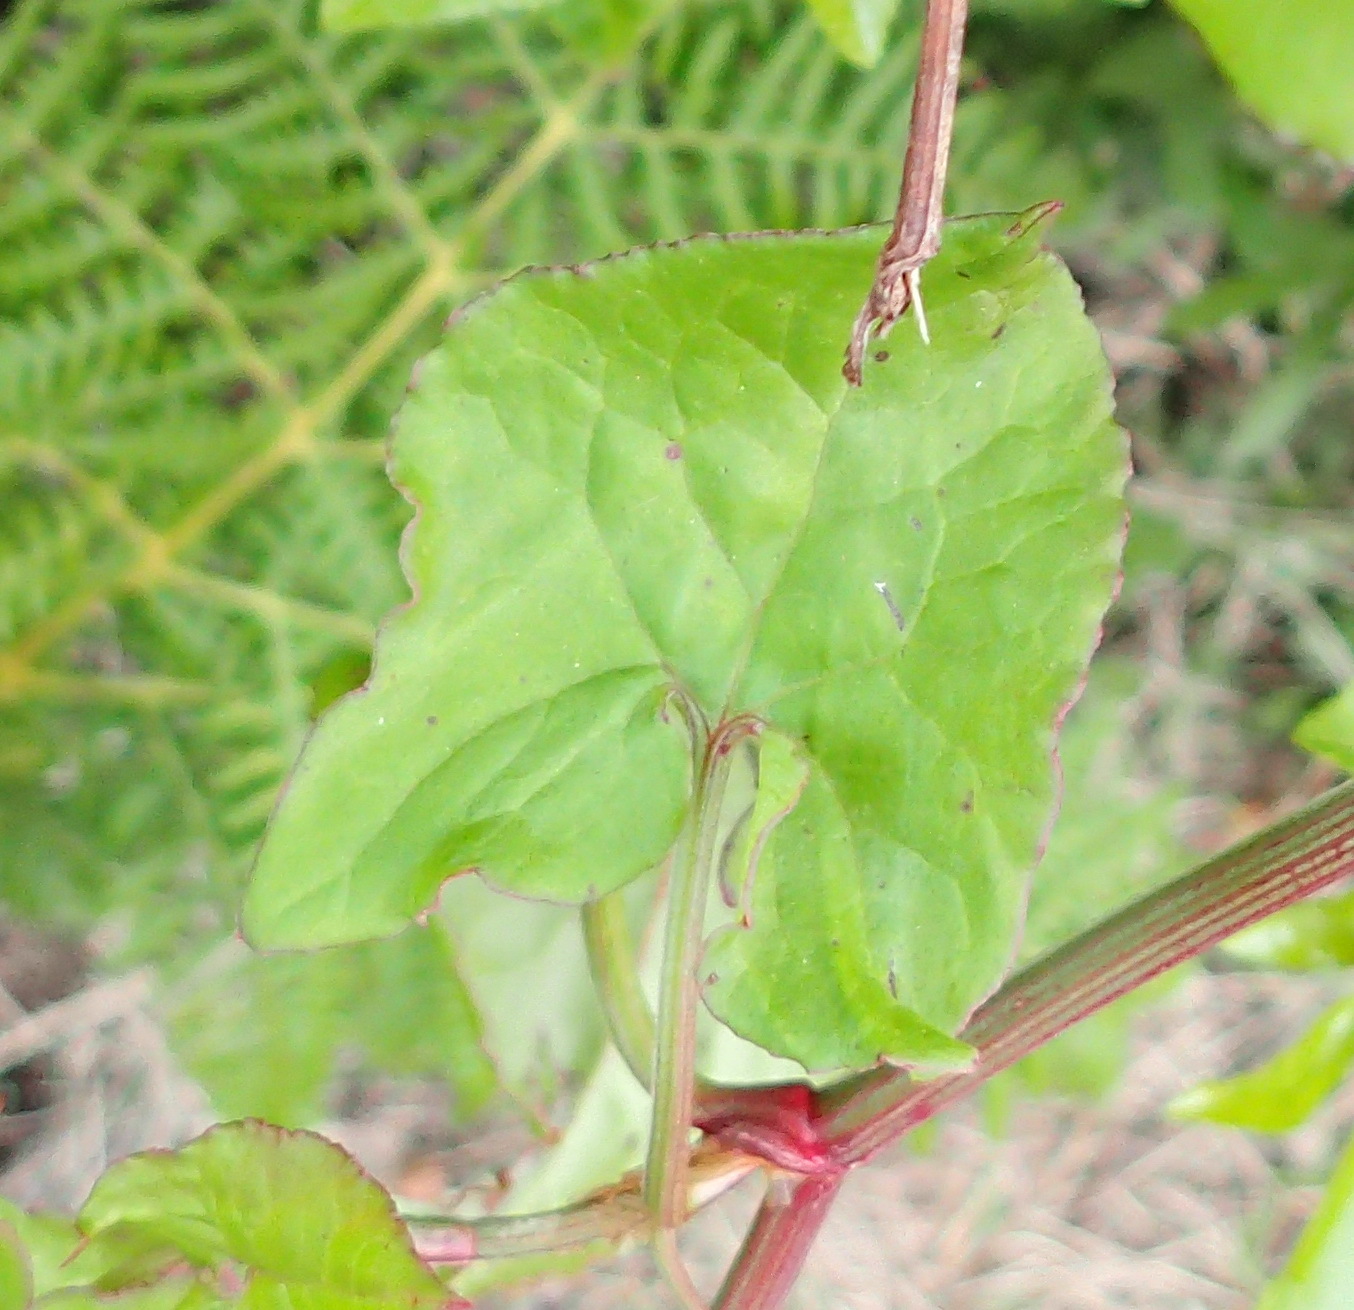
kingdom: Plantae
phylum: Tracheophyta
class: Magnoliopsida
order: Caryophyllales
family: Polygonaceae
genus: Rumex
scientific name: Rumex sagittatus
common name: Climbing dock
